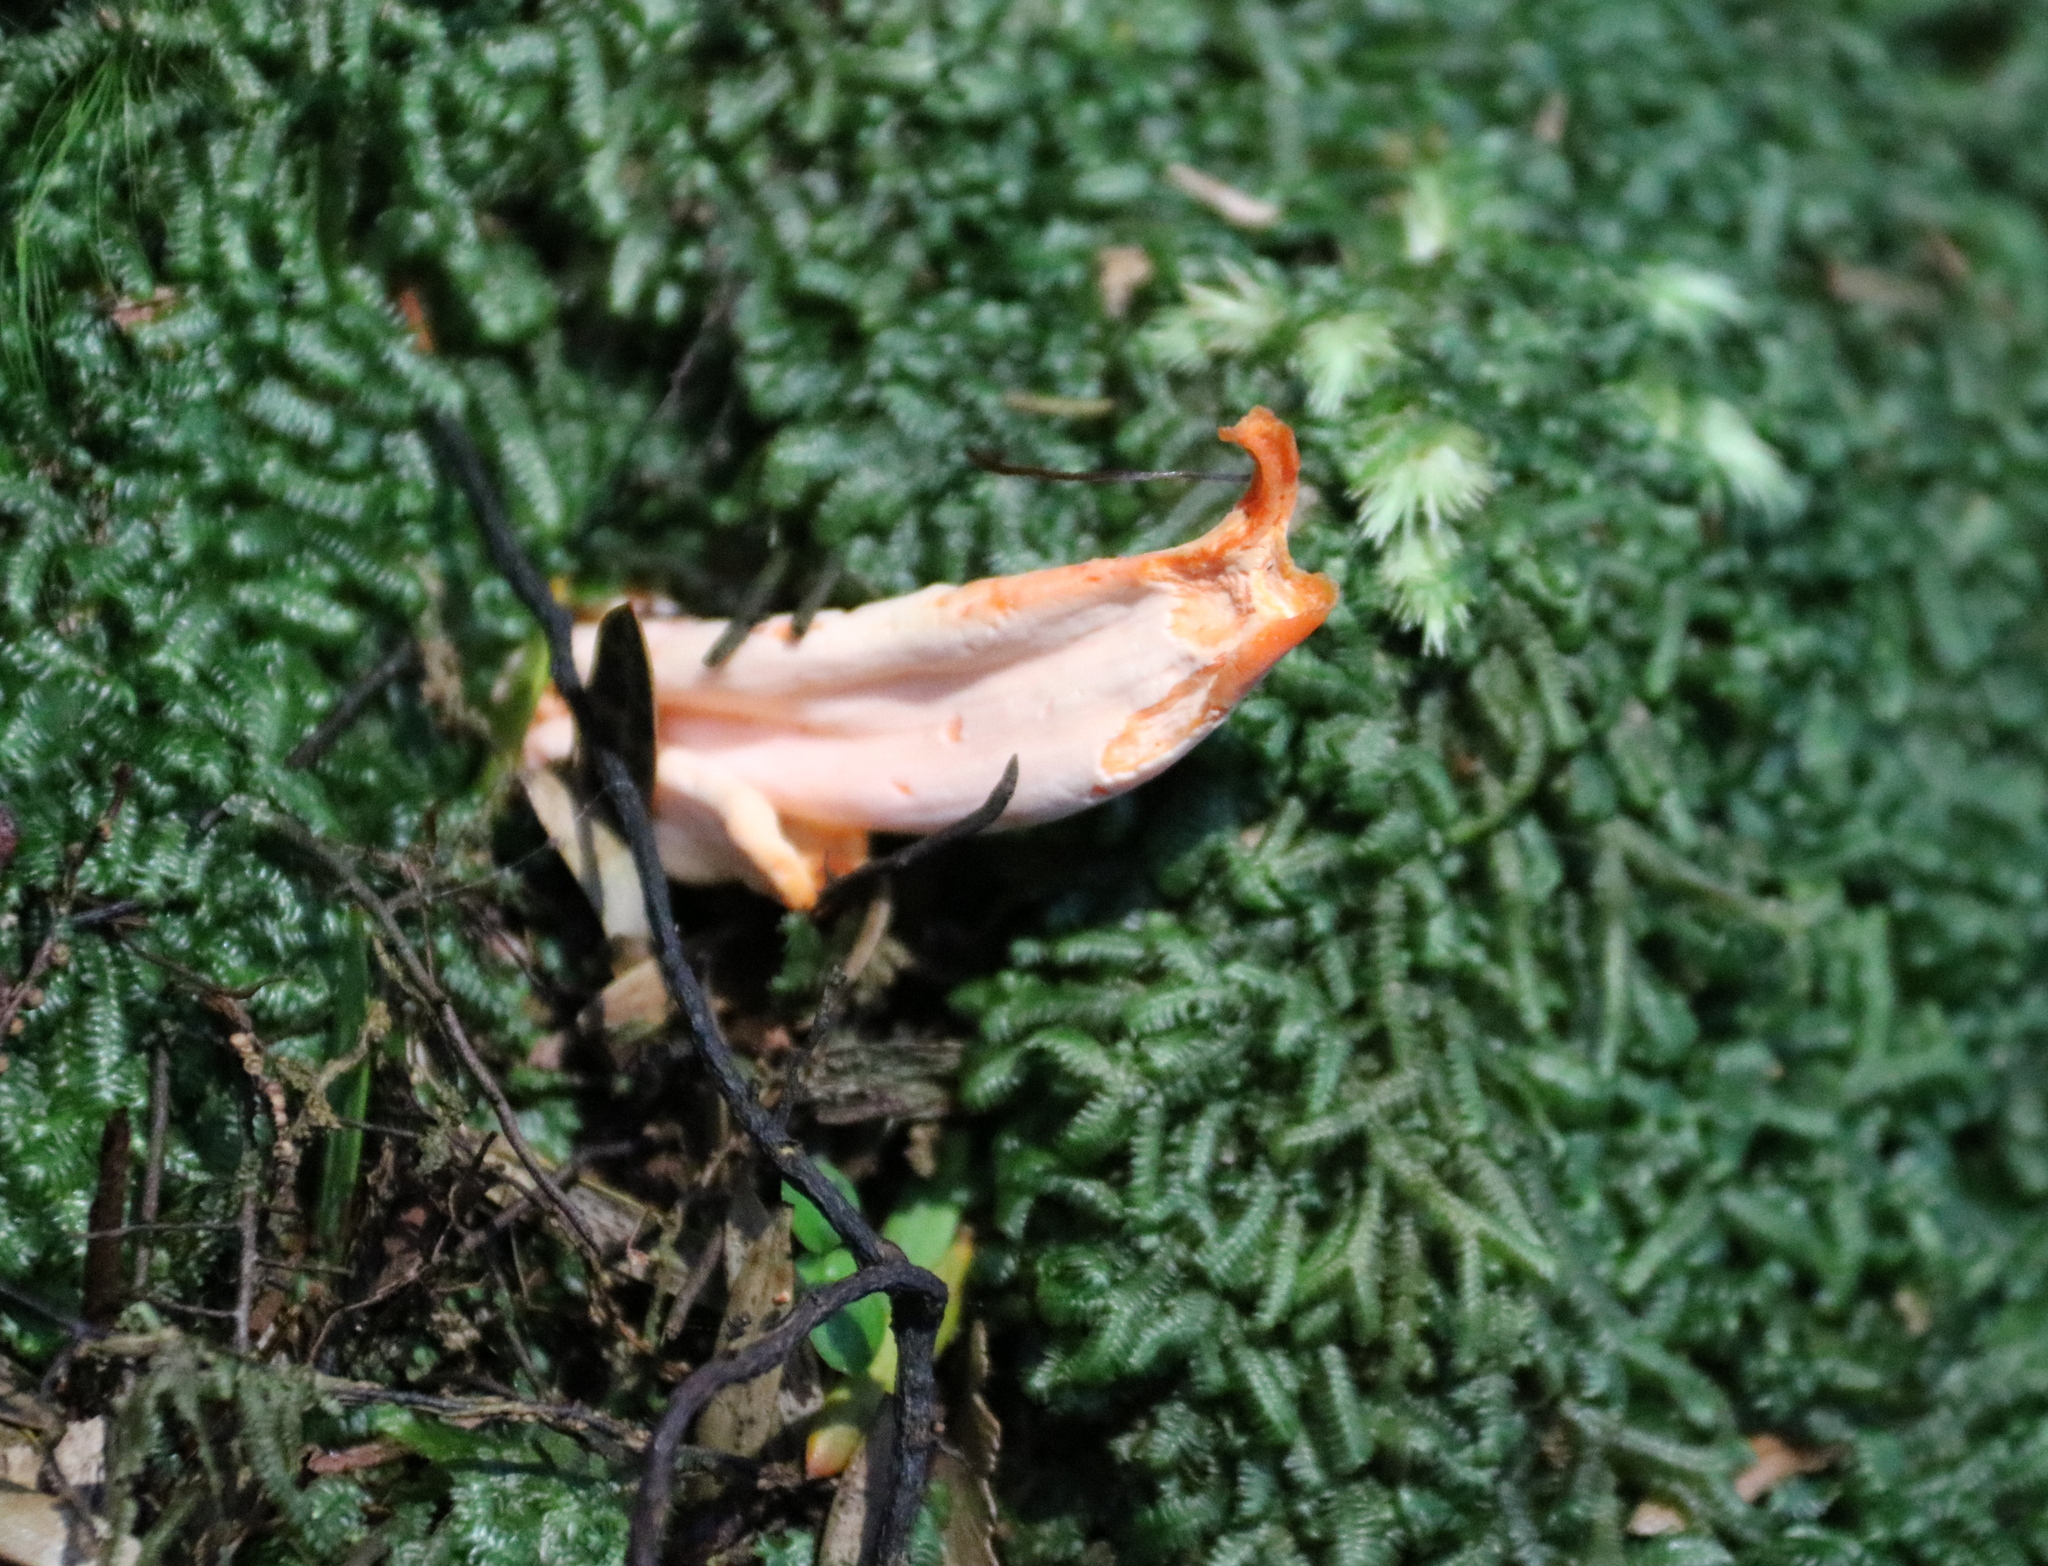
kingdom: Fungi
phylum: Basidiomycota
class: Agaricomycetes
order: Agaricales
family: Clavariaceae
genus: Clavulinopsis
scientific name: Clavulinopsis sulcata
